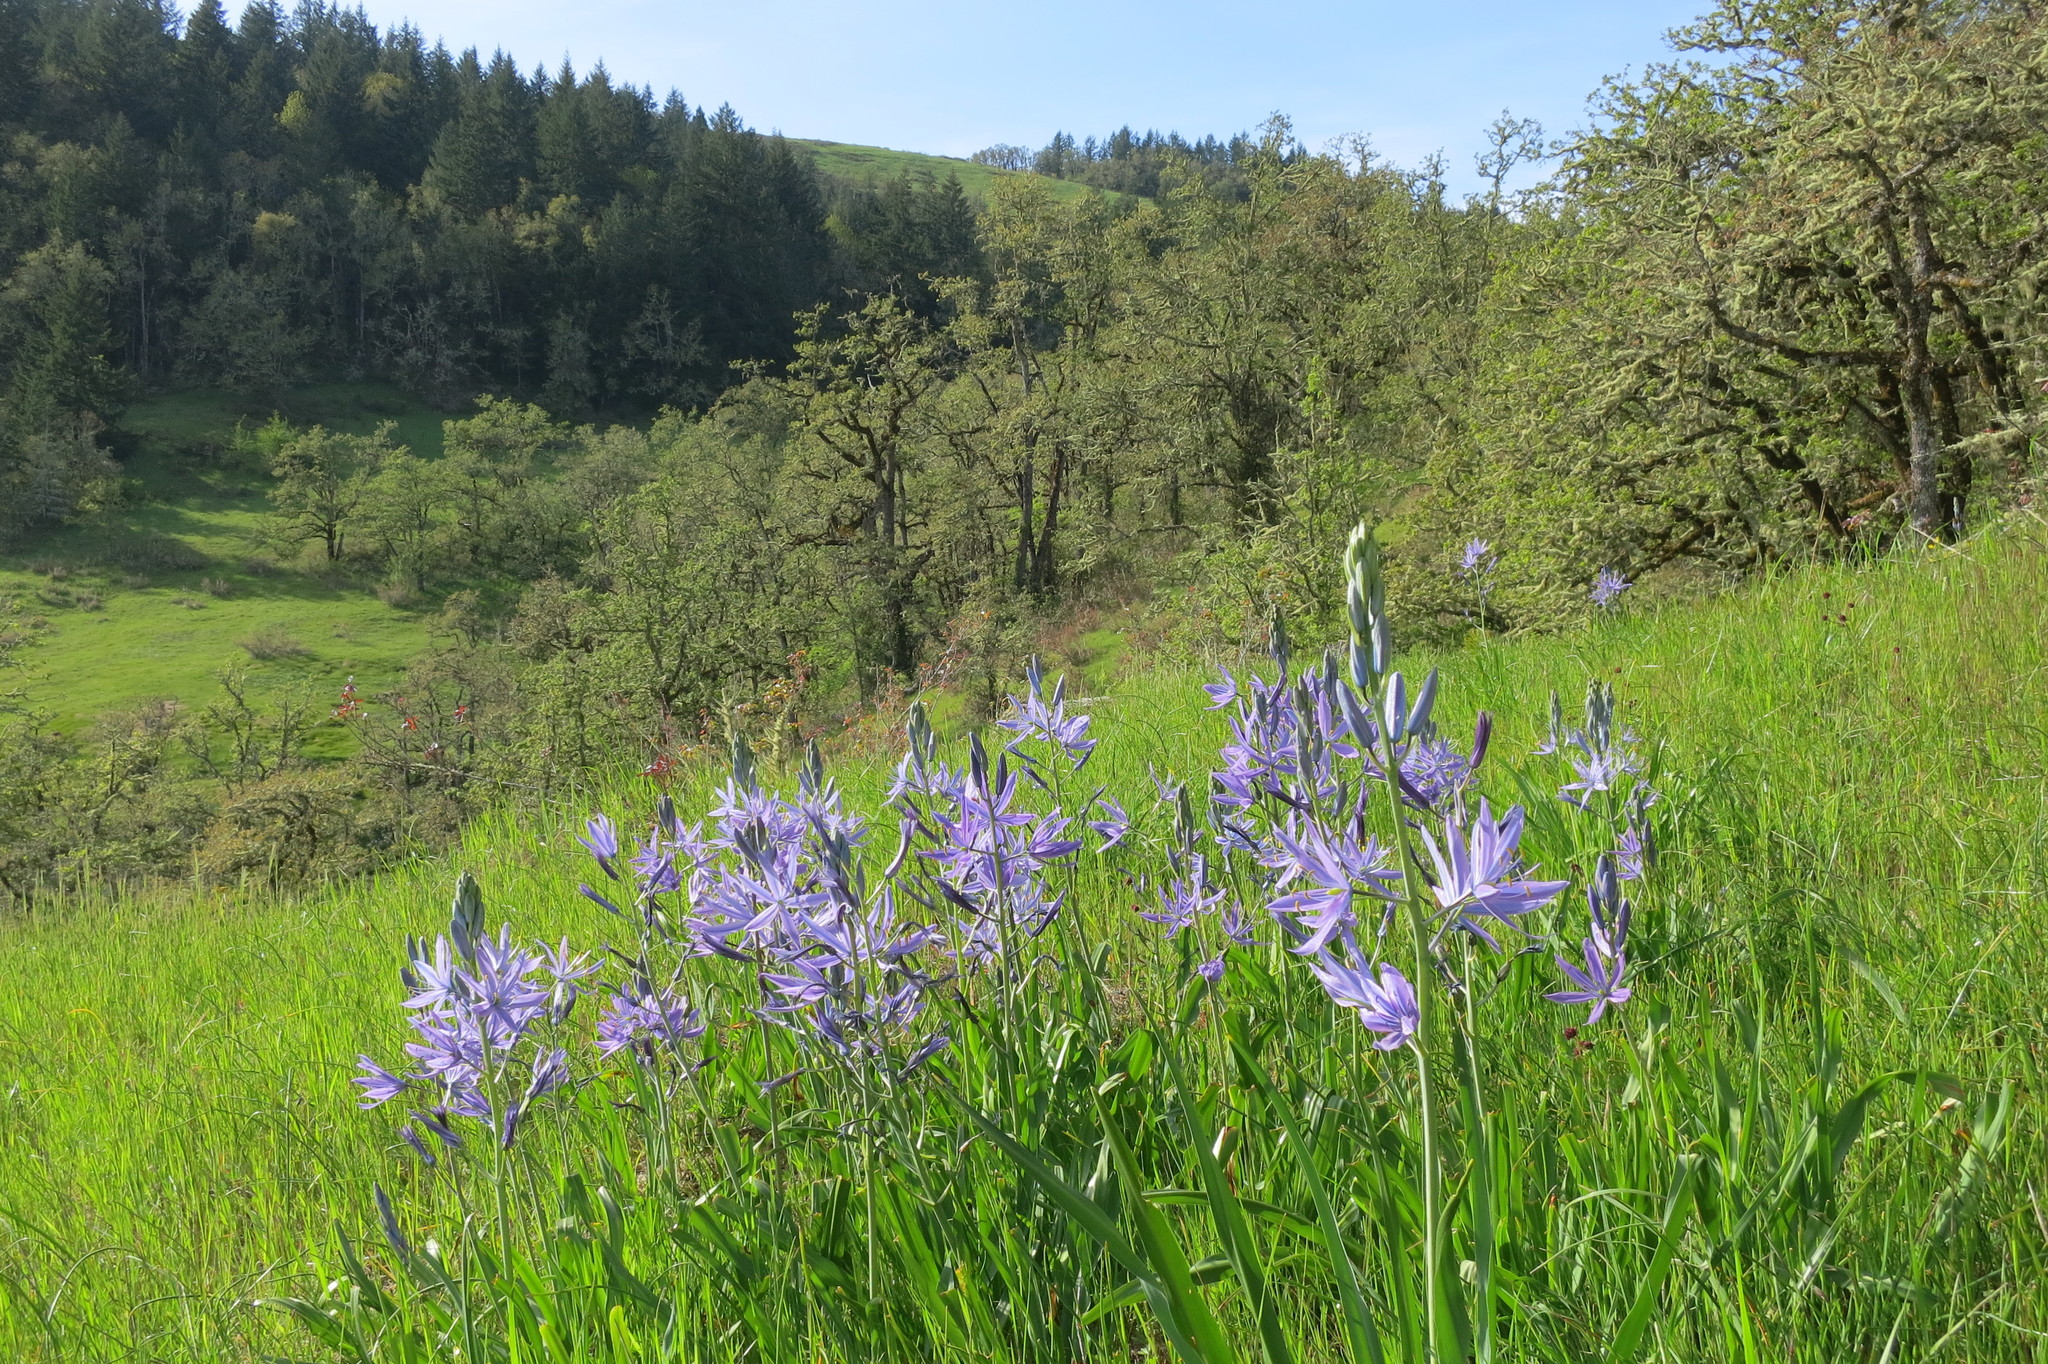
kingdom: Plantae
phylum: Tracheophyta
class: Liliopsida
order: Asparagales
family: Asparagaceae
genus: Camassia
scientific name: Camassia leichtlinii
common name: Leichtlin's camas
